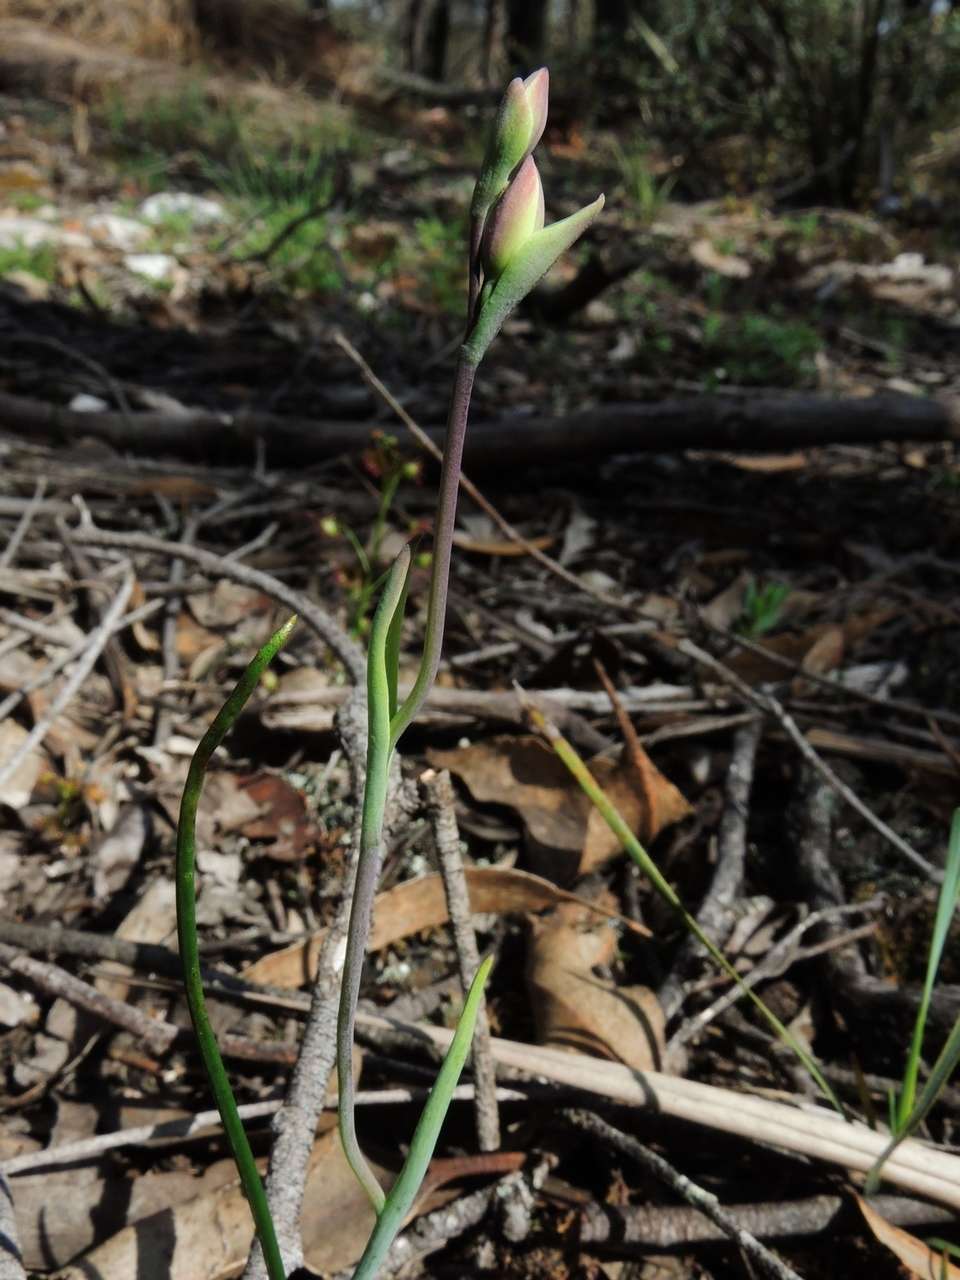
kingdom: Plantae
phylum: Tracheophyta
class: Liliopsida
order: Asparagales
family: Orchidaceae
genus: Thelymitra
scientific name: Thelymitra flexuosa
